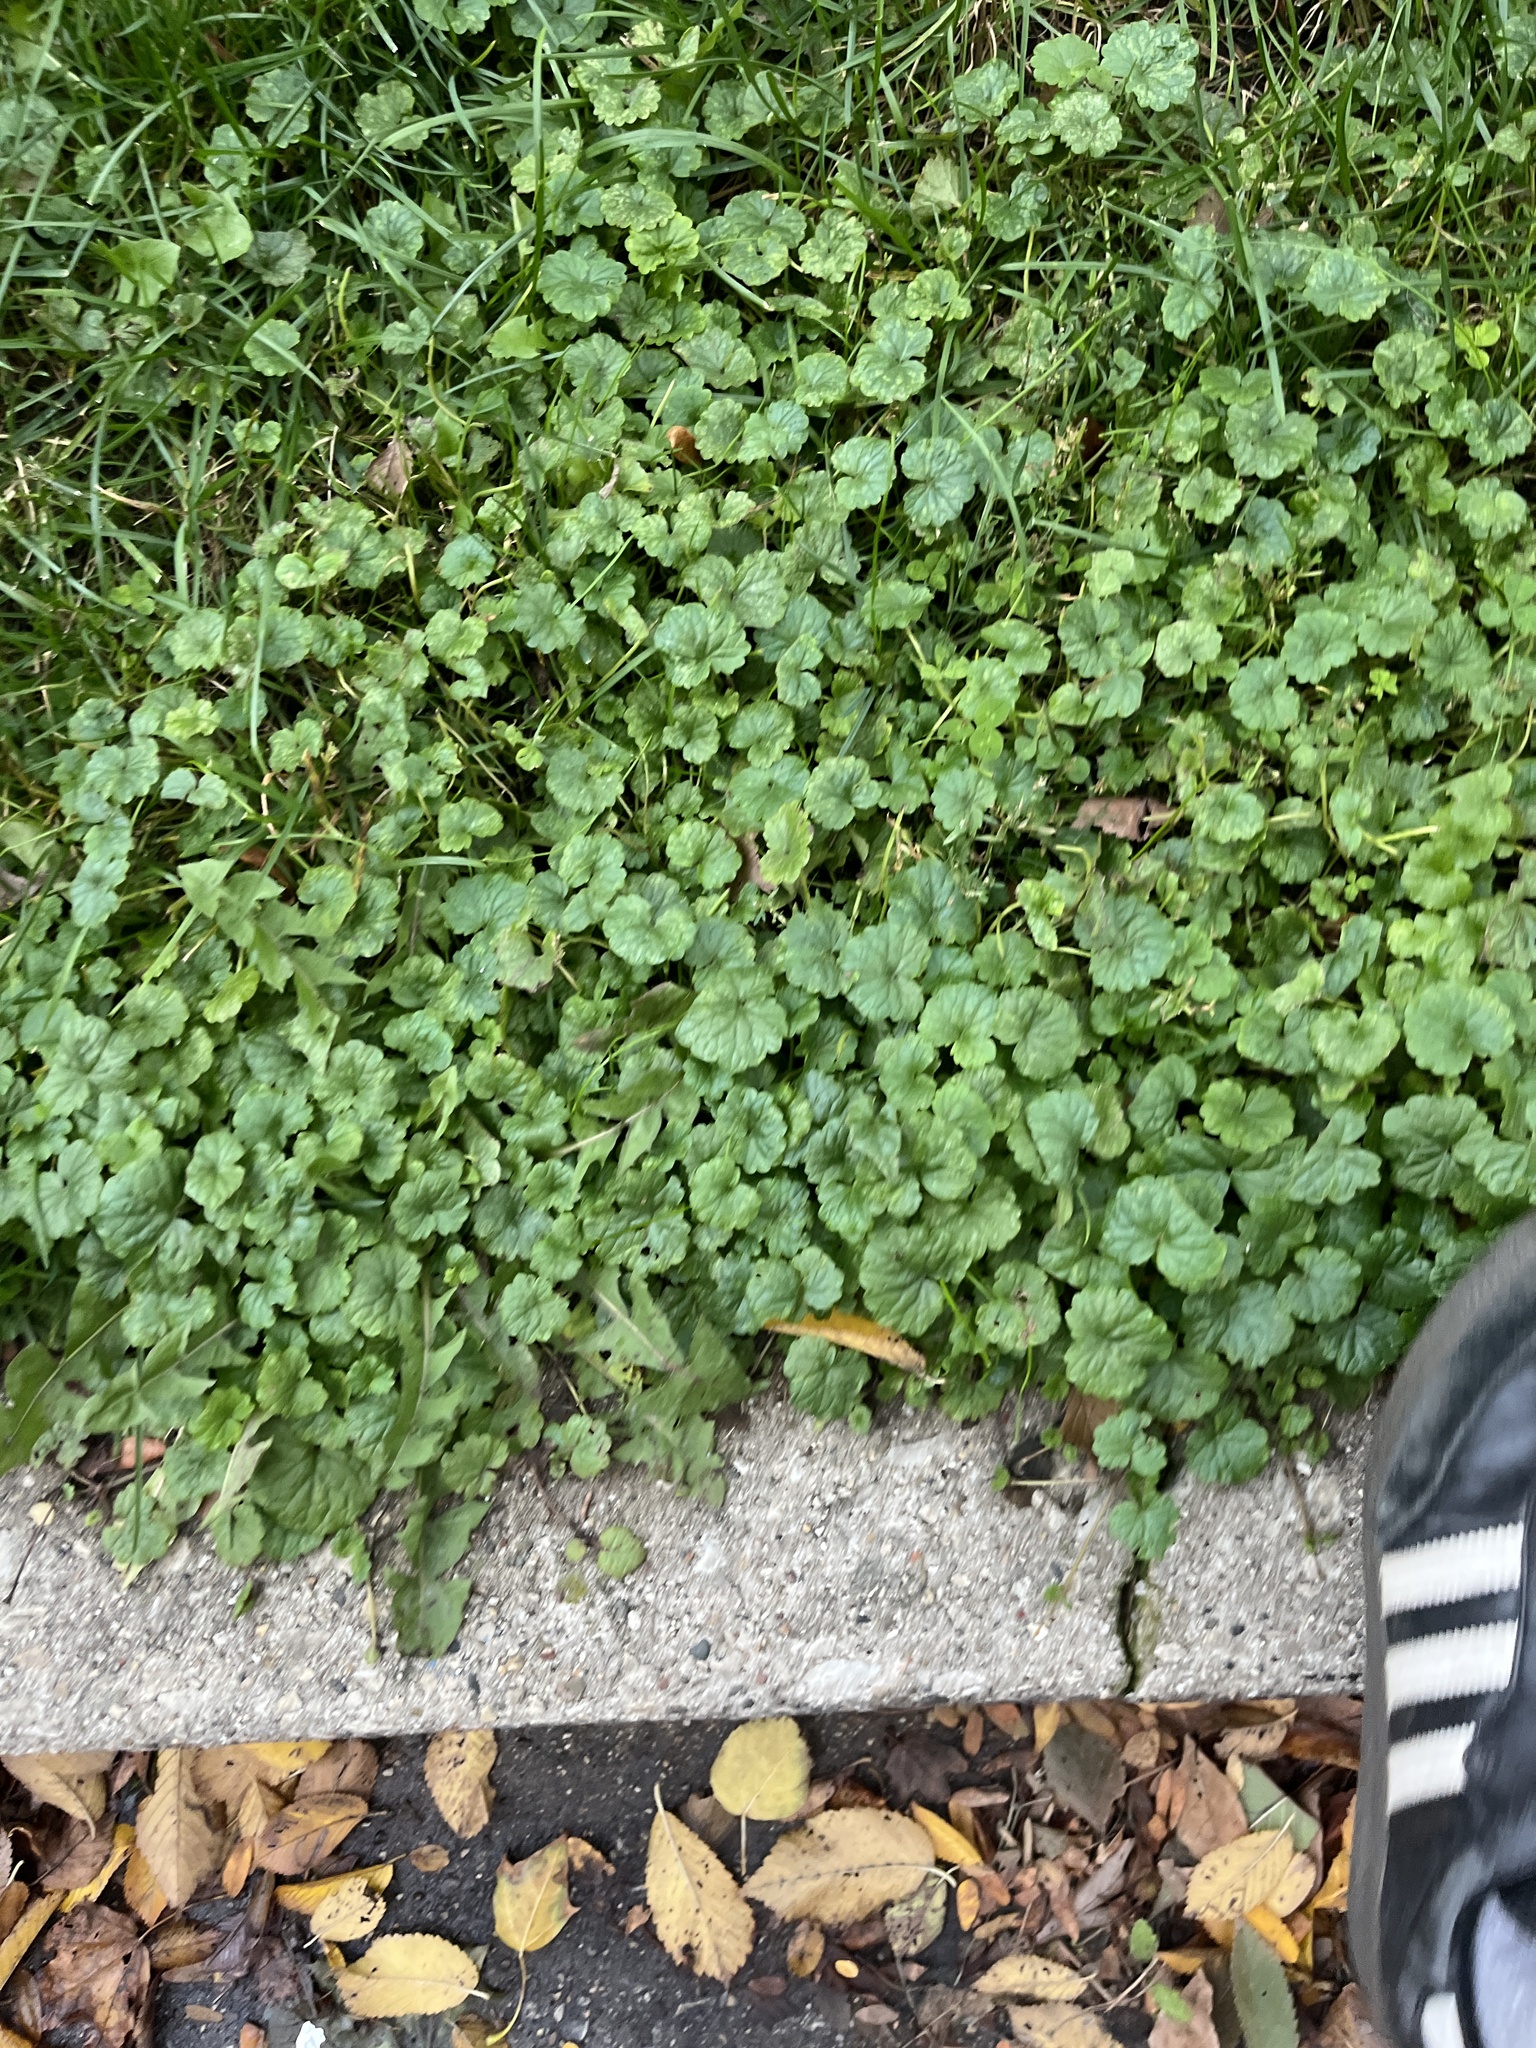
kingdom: Plantae
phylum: Tracheophyta
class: Magnoliopsida
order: Lamiales
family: Lamiaceae
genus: Glechoma
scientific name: Glechoma hederacea
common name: Ground ivy
